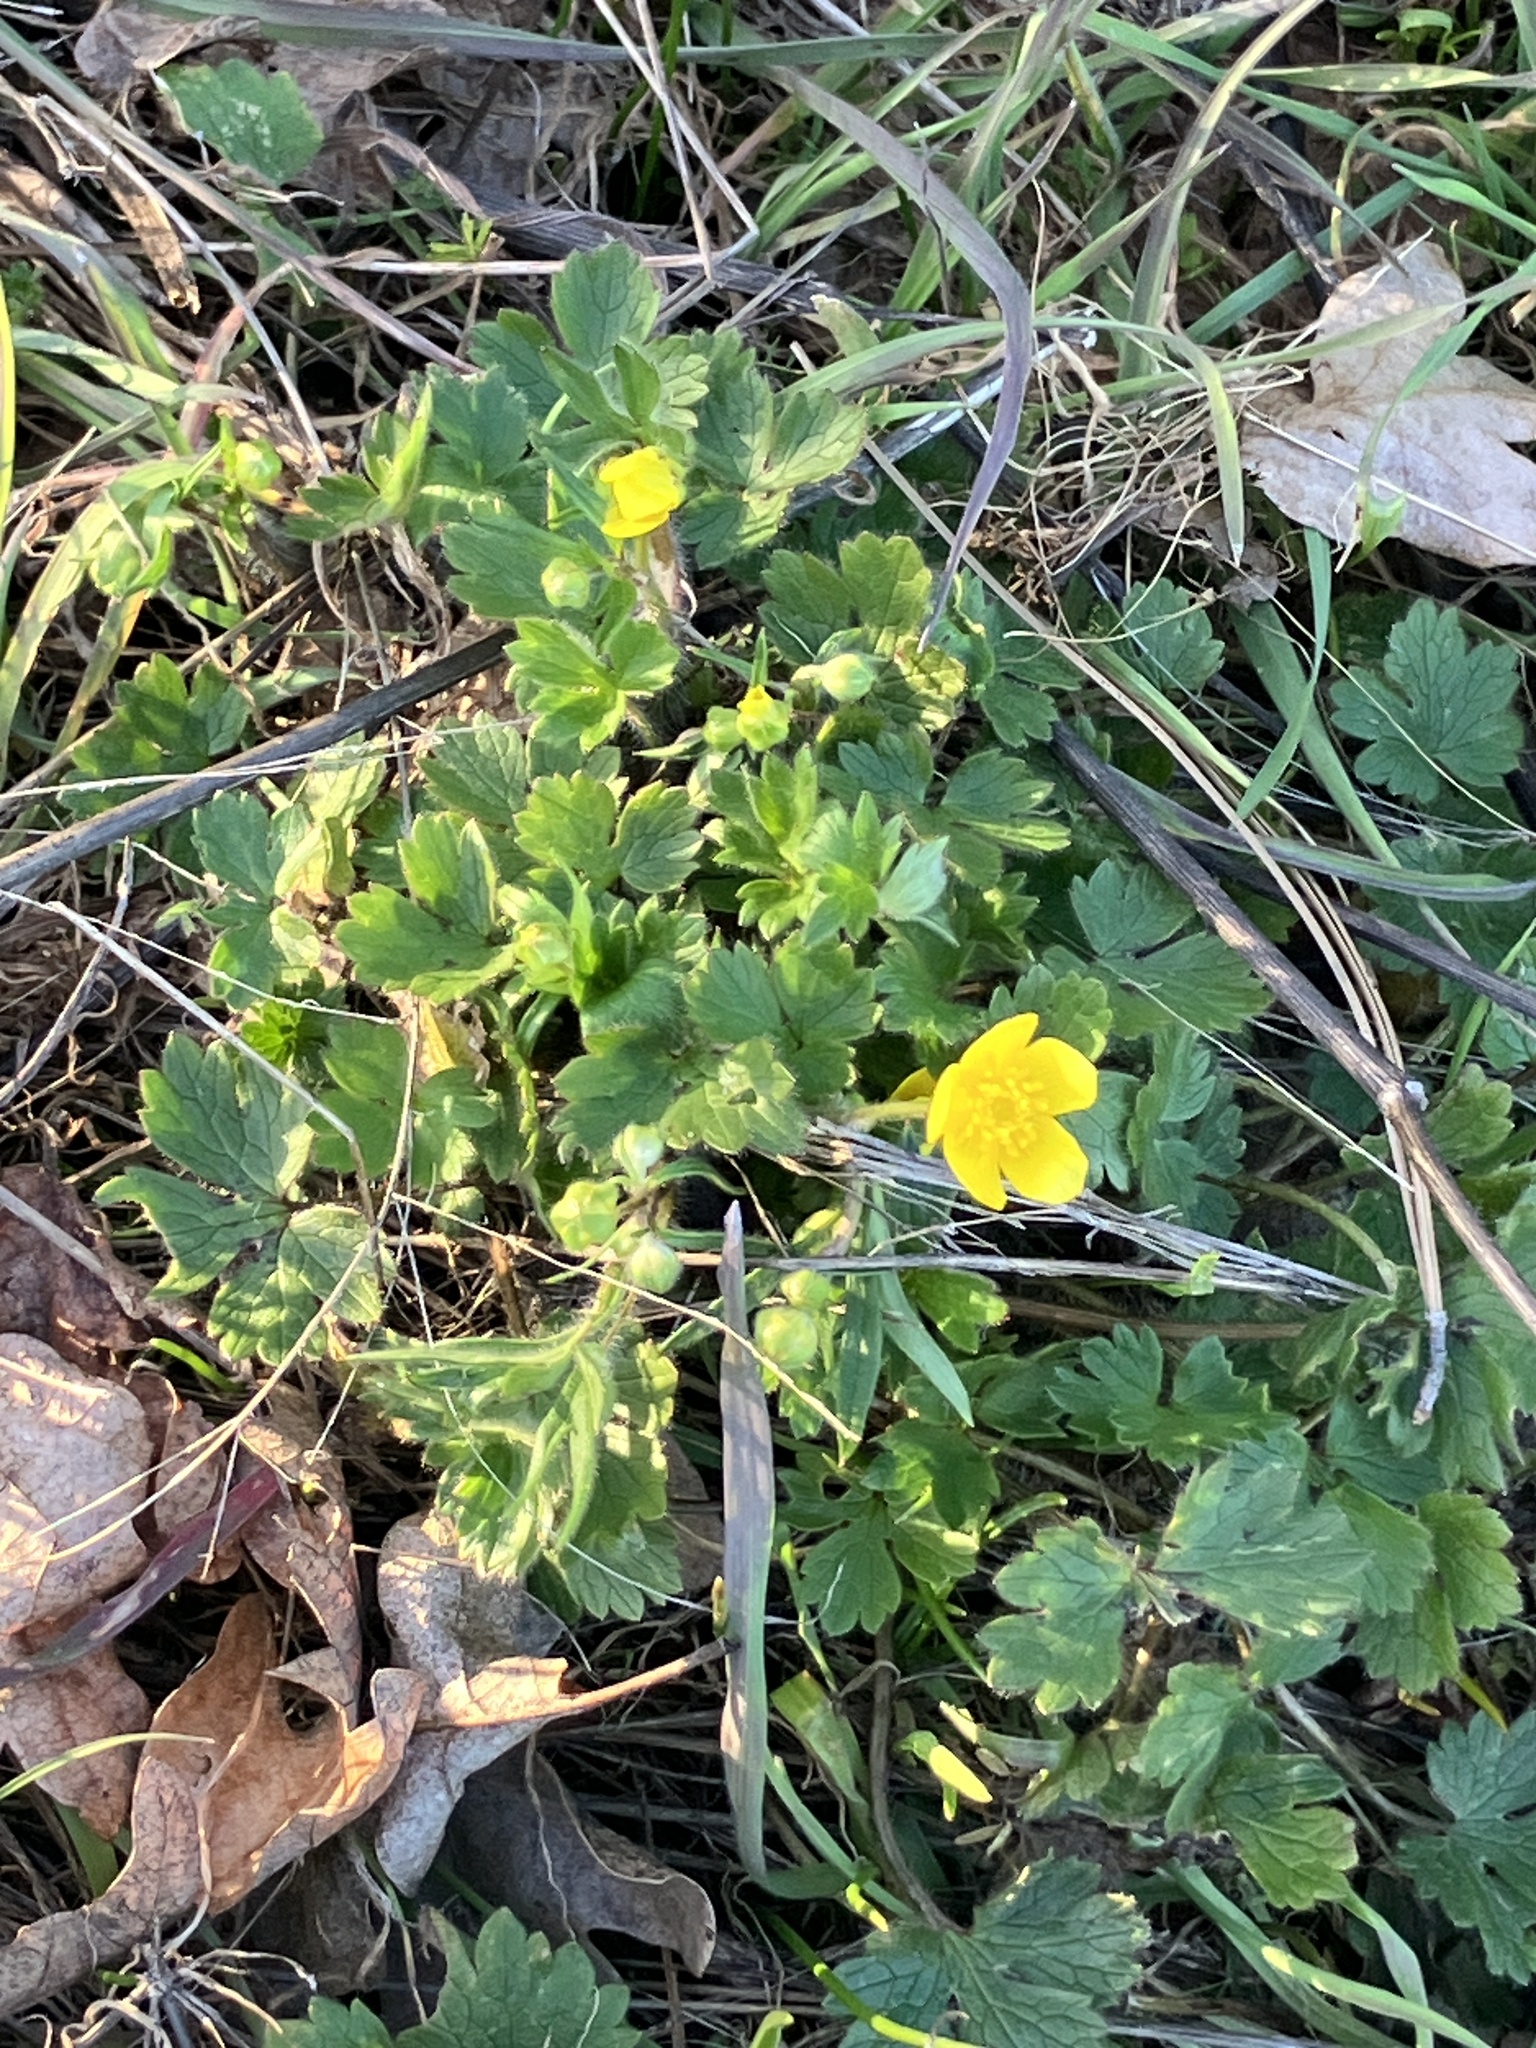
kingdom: Plantae
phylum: Tracheophyta
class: Magnoliopsida
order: Ranunculales
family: Ranunculaceae
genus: Ranunculus
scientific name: Ranunculus occidentalis
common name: Western buttercup
